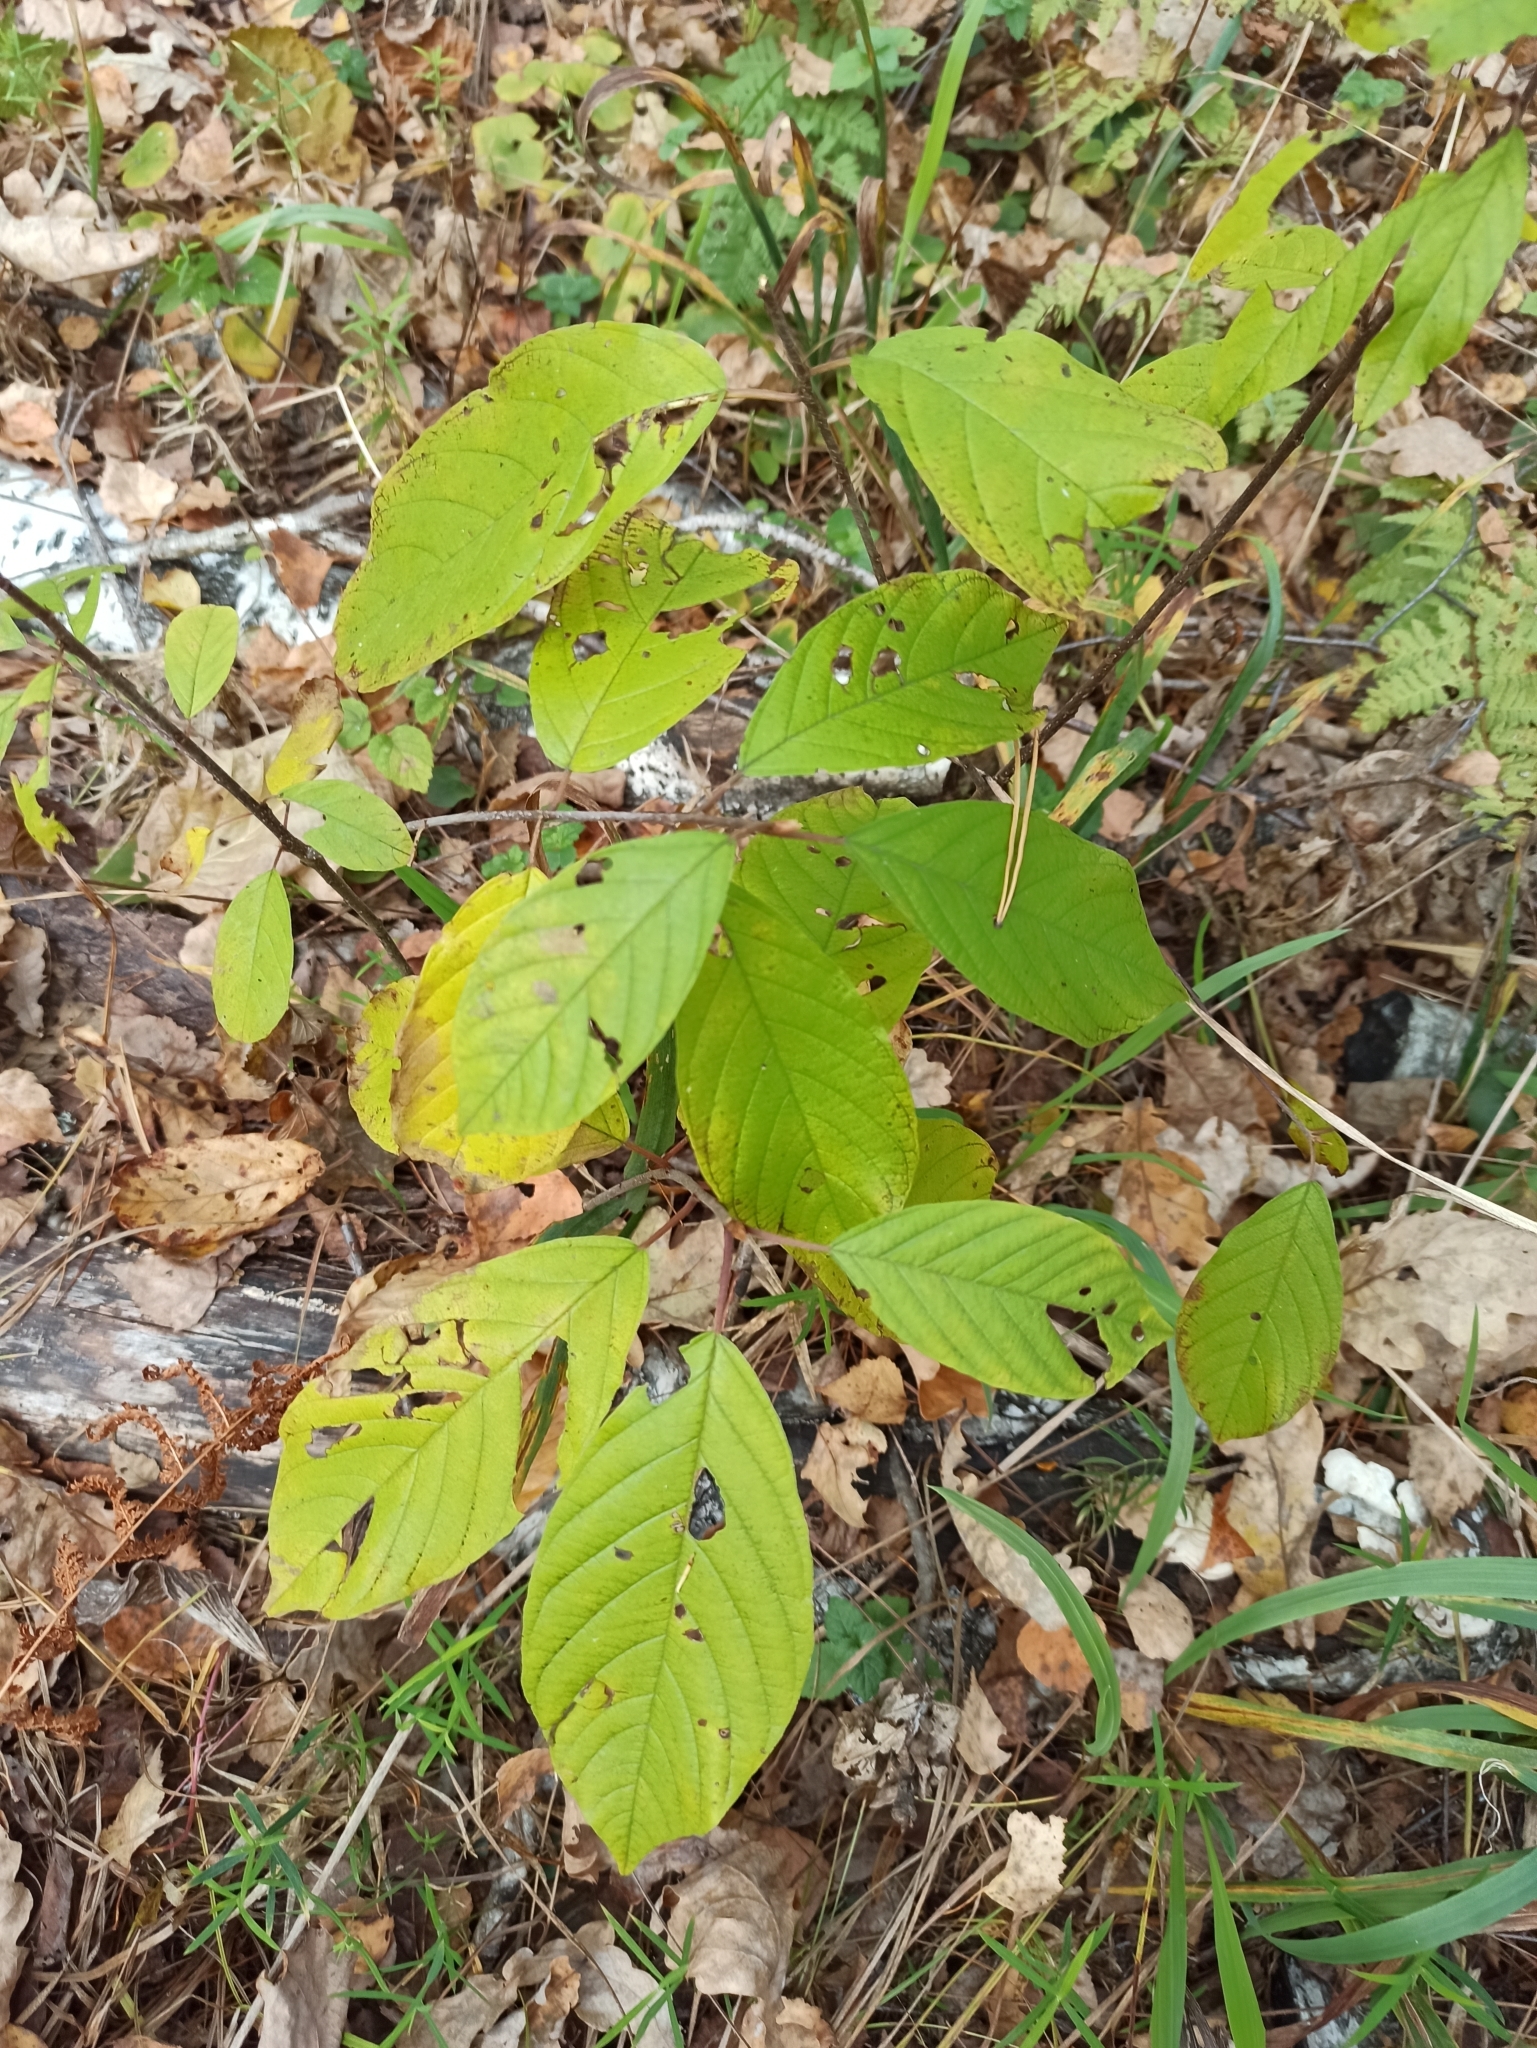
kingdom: Plantae
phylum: Tracheophyta
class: Magnoliopsida
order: Rosales
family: Rhamnaceae
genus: Frangula
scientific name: Frangula alnus
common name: Alder buckthorn
